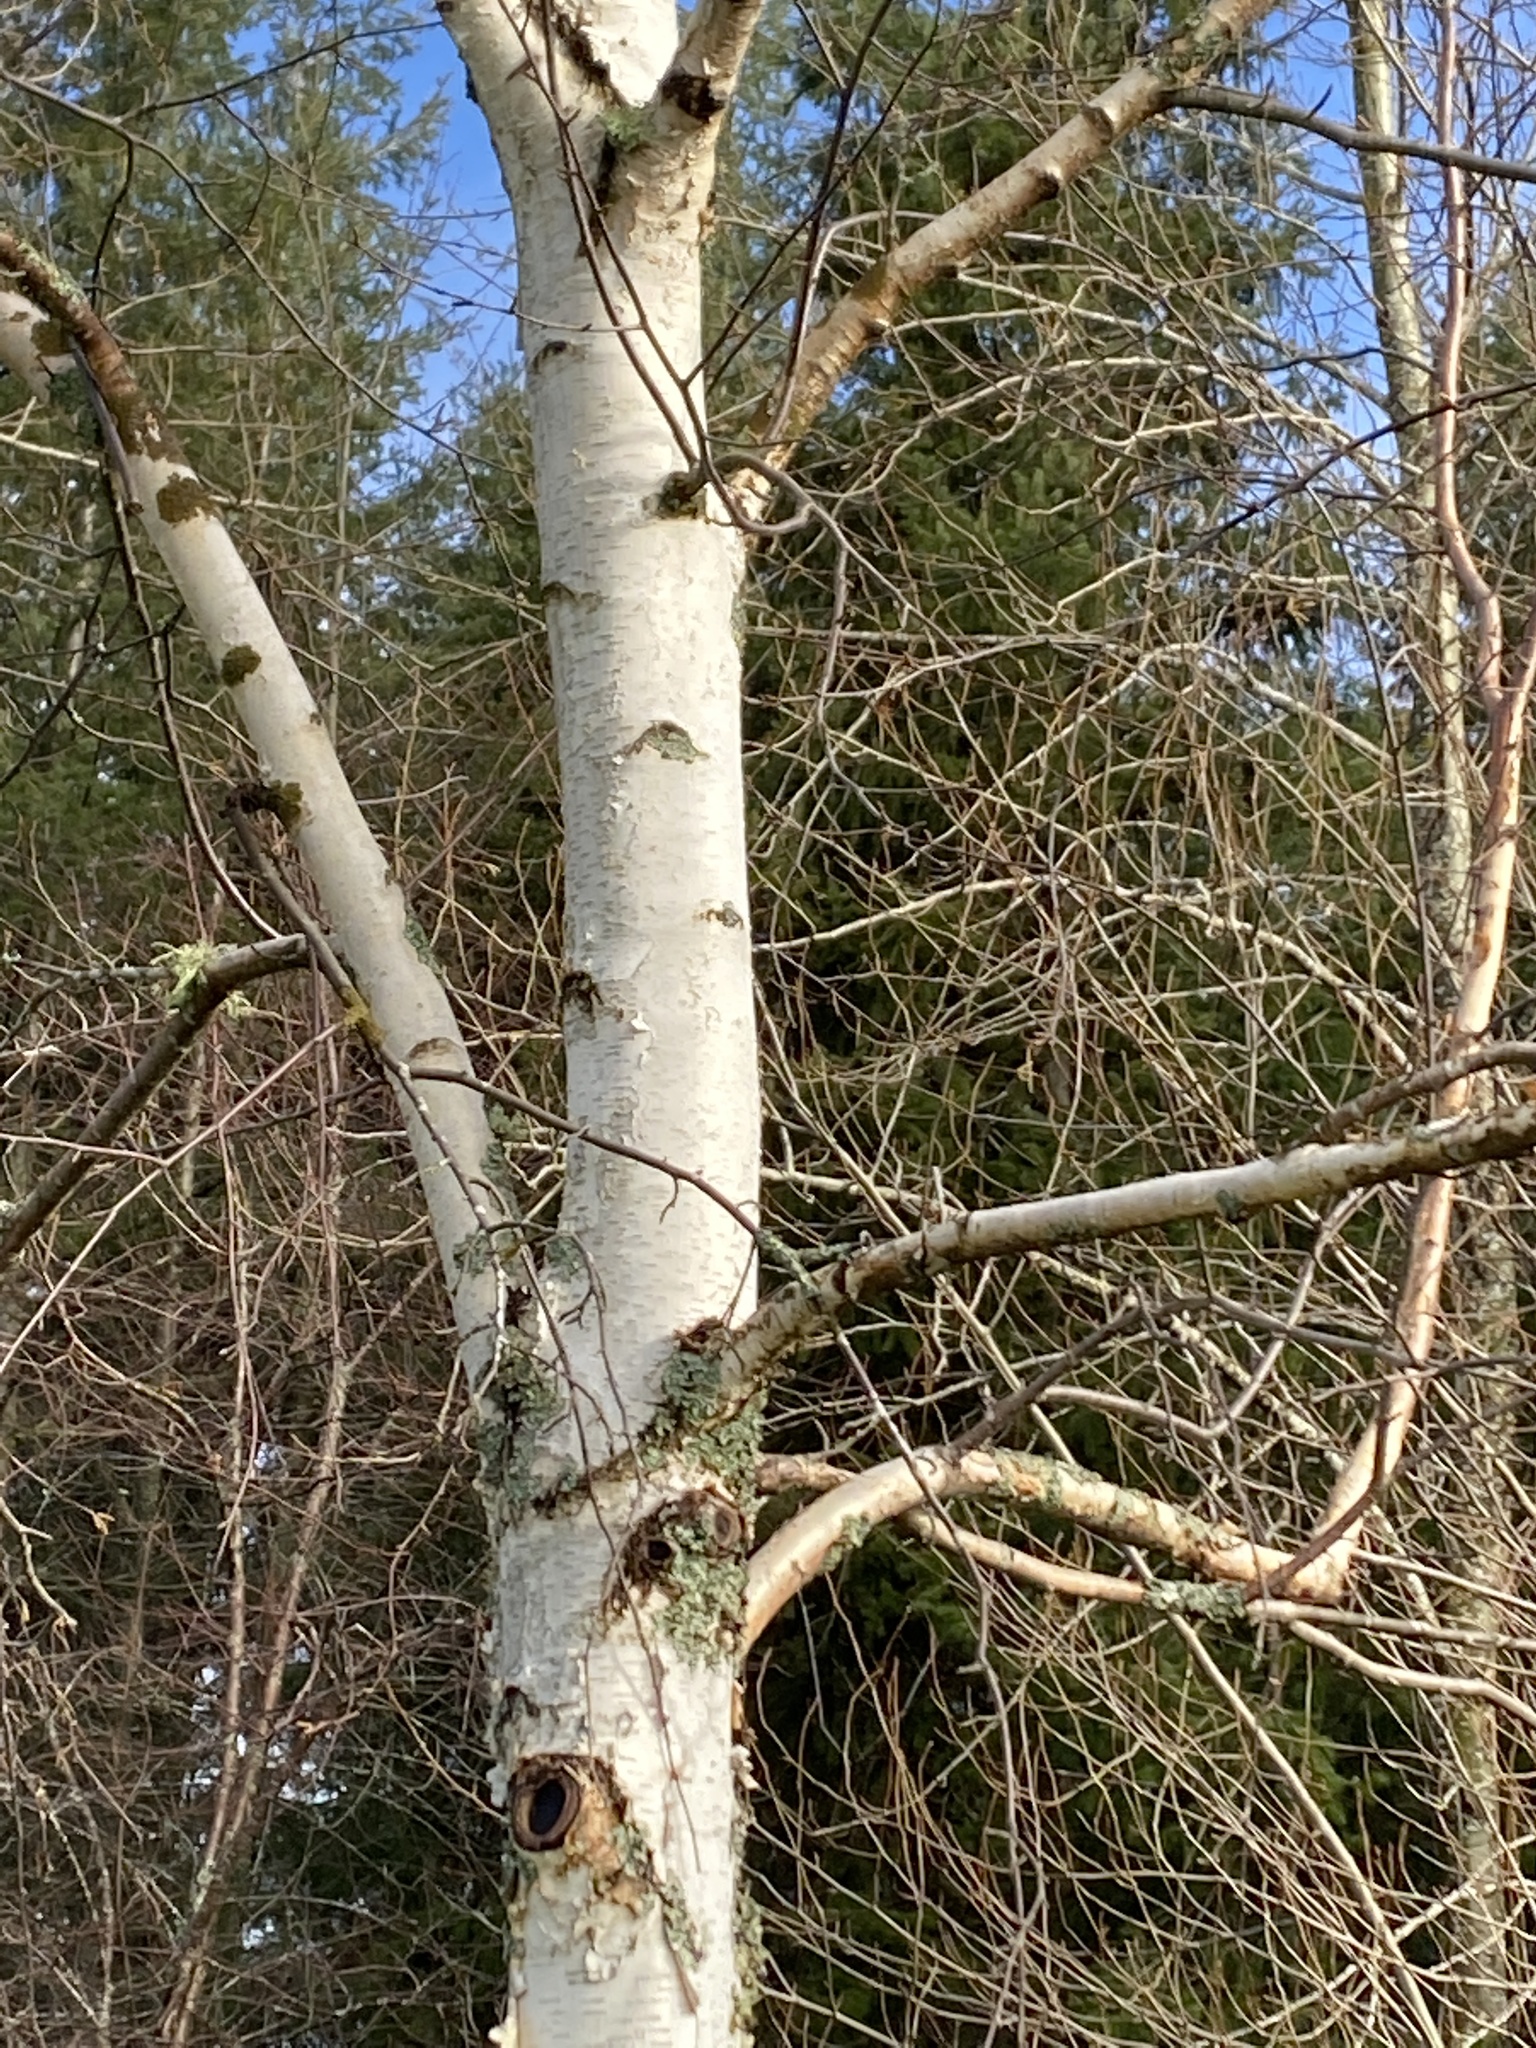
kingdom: Plantae
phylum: Tracheophyta
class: Magnoliopsida
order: Fagales
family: Betulaceae
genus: Betula
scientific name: Betula papyrifera
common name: Paper birch
